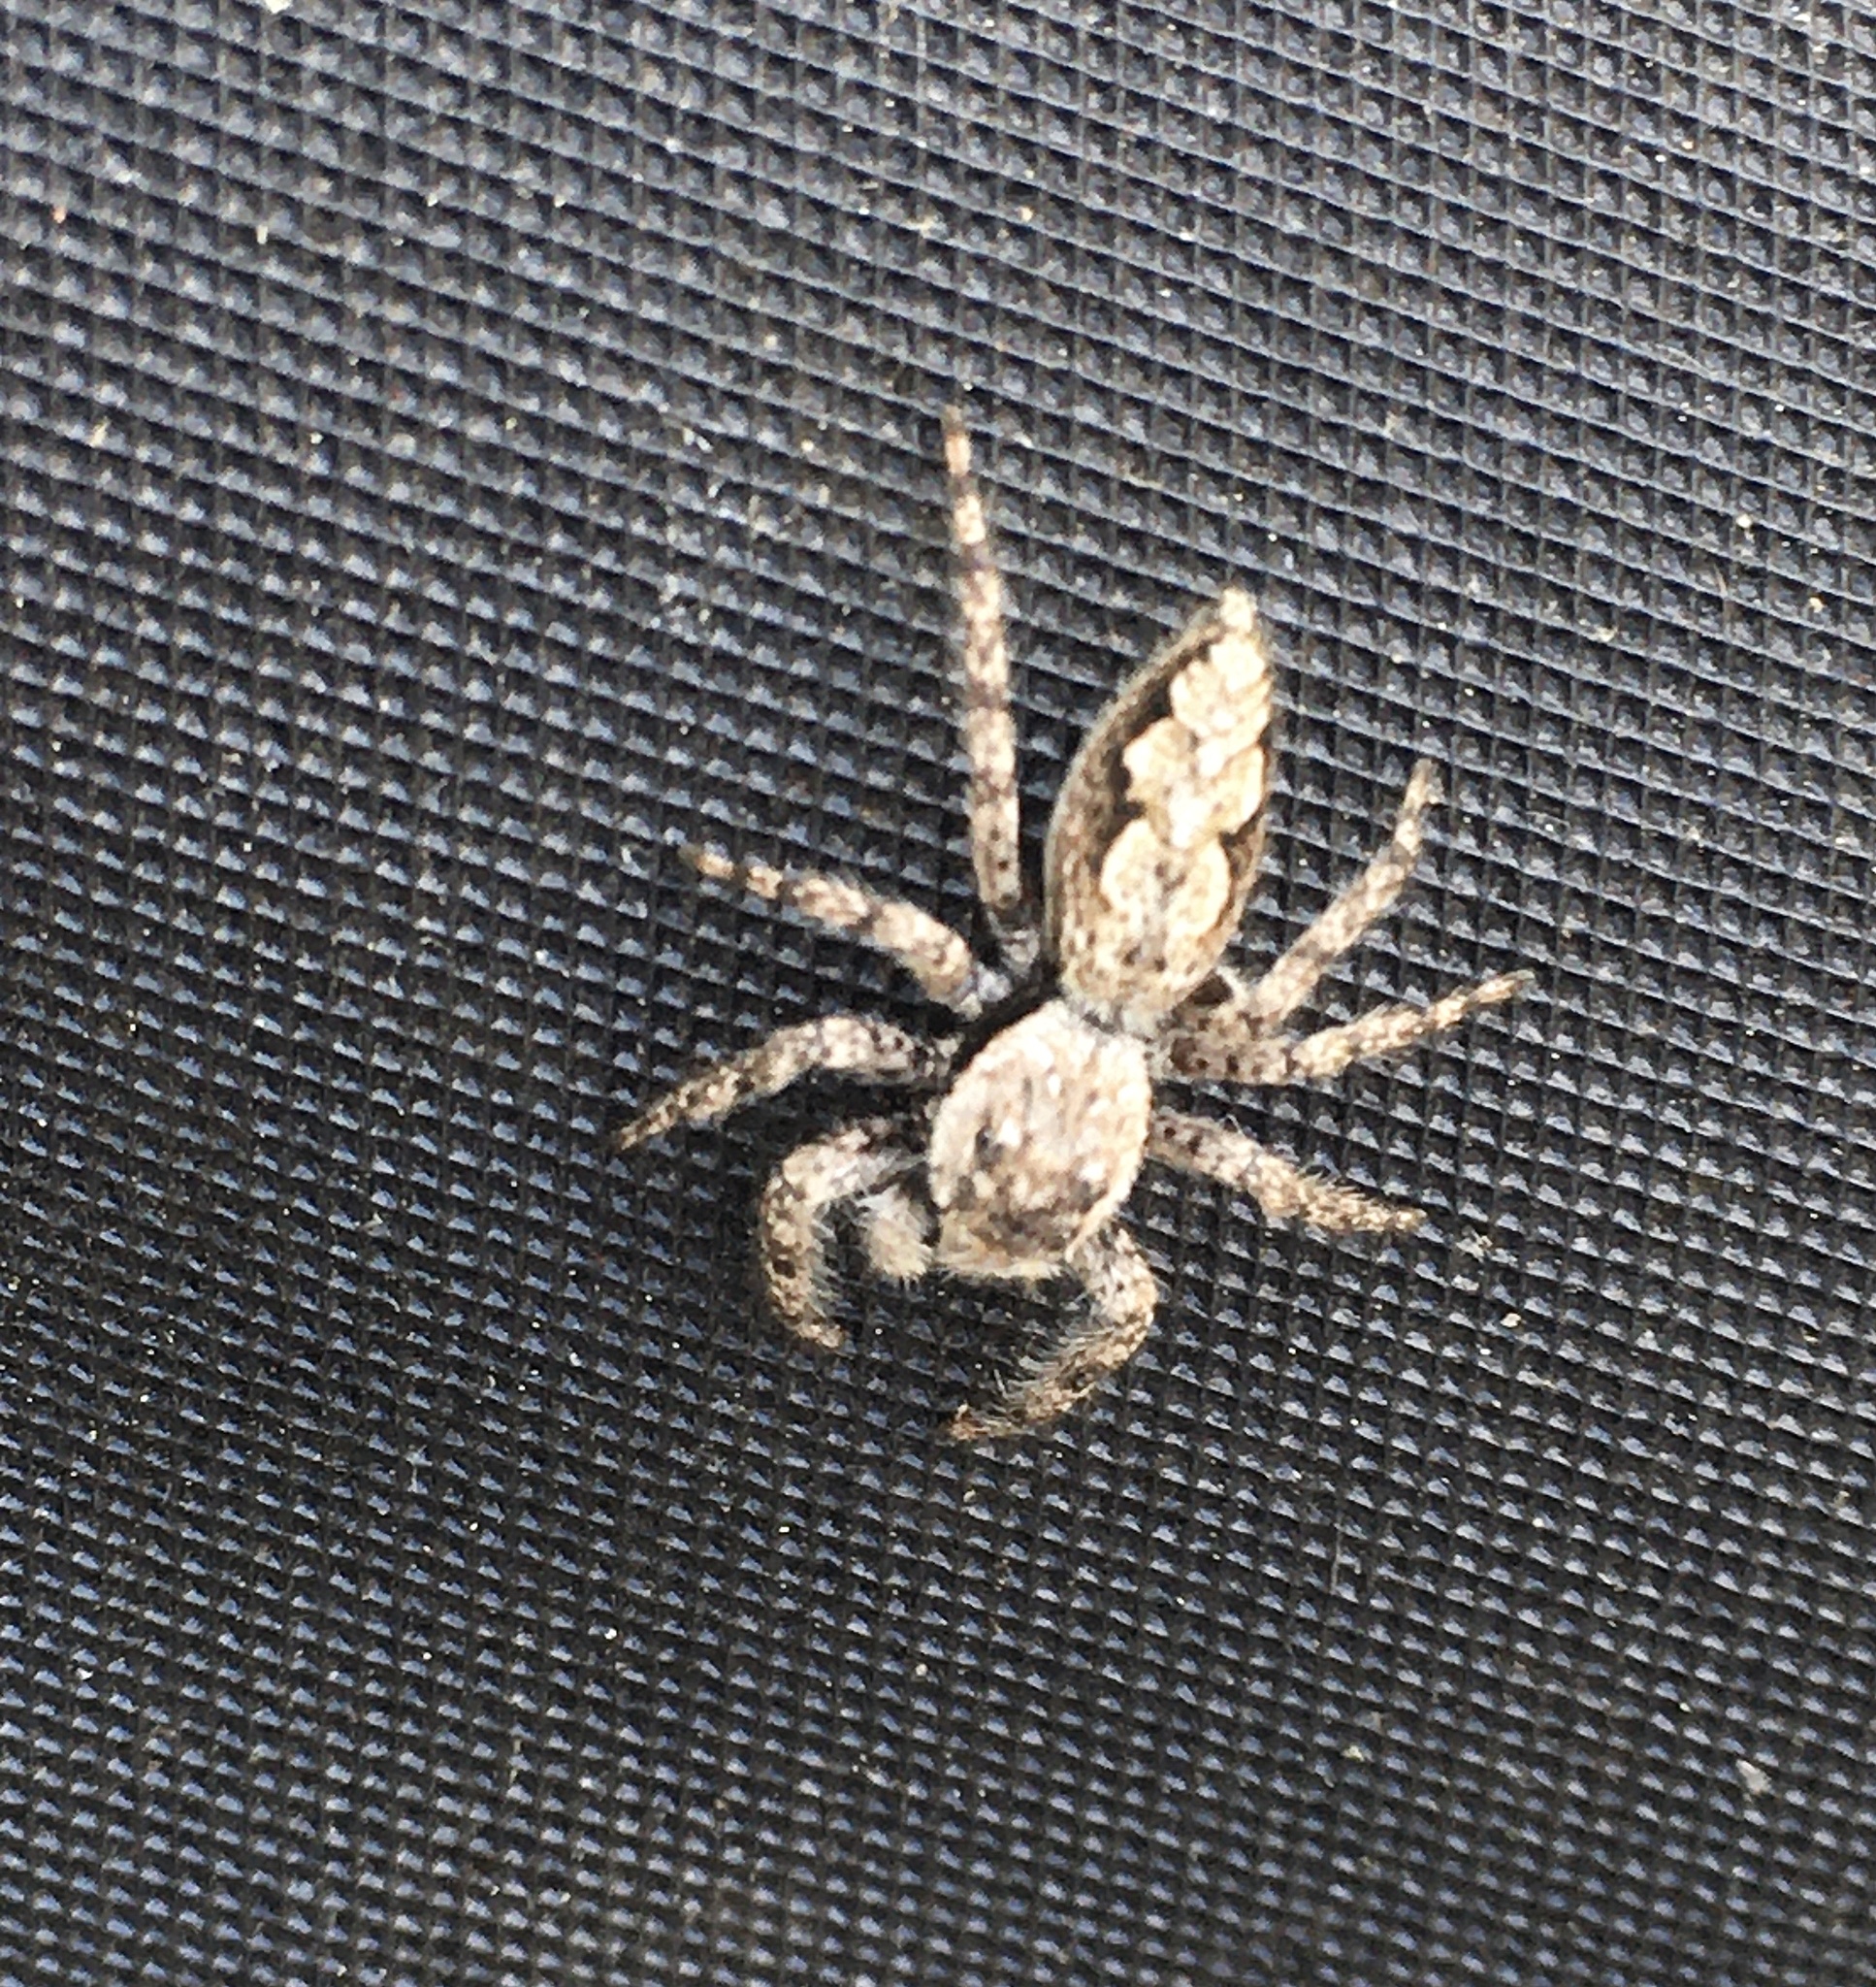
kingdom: Animalia
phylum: Arthropoda
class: Arachnida
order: Araneae
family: Salticidae
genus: Platycryptus
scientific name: Platycryptus undatus
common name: Tan jumping spider
